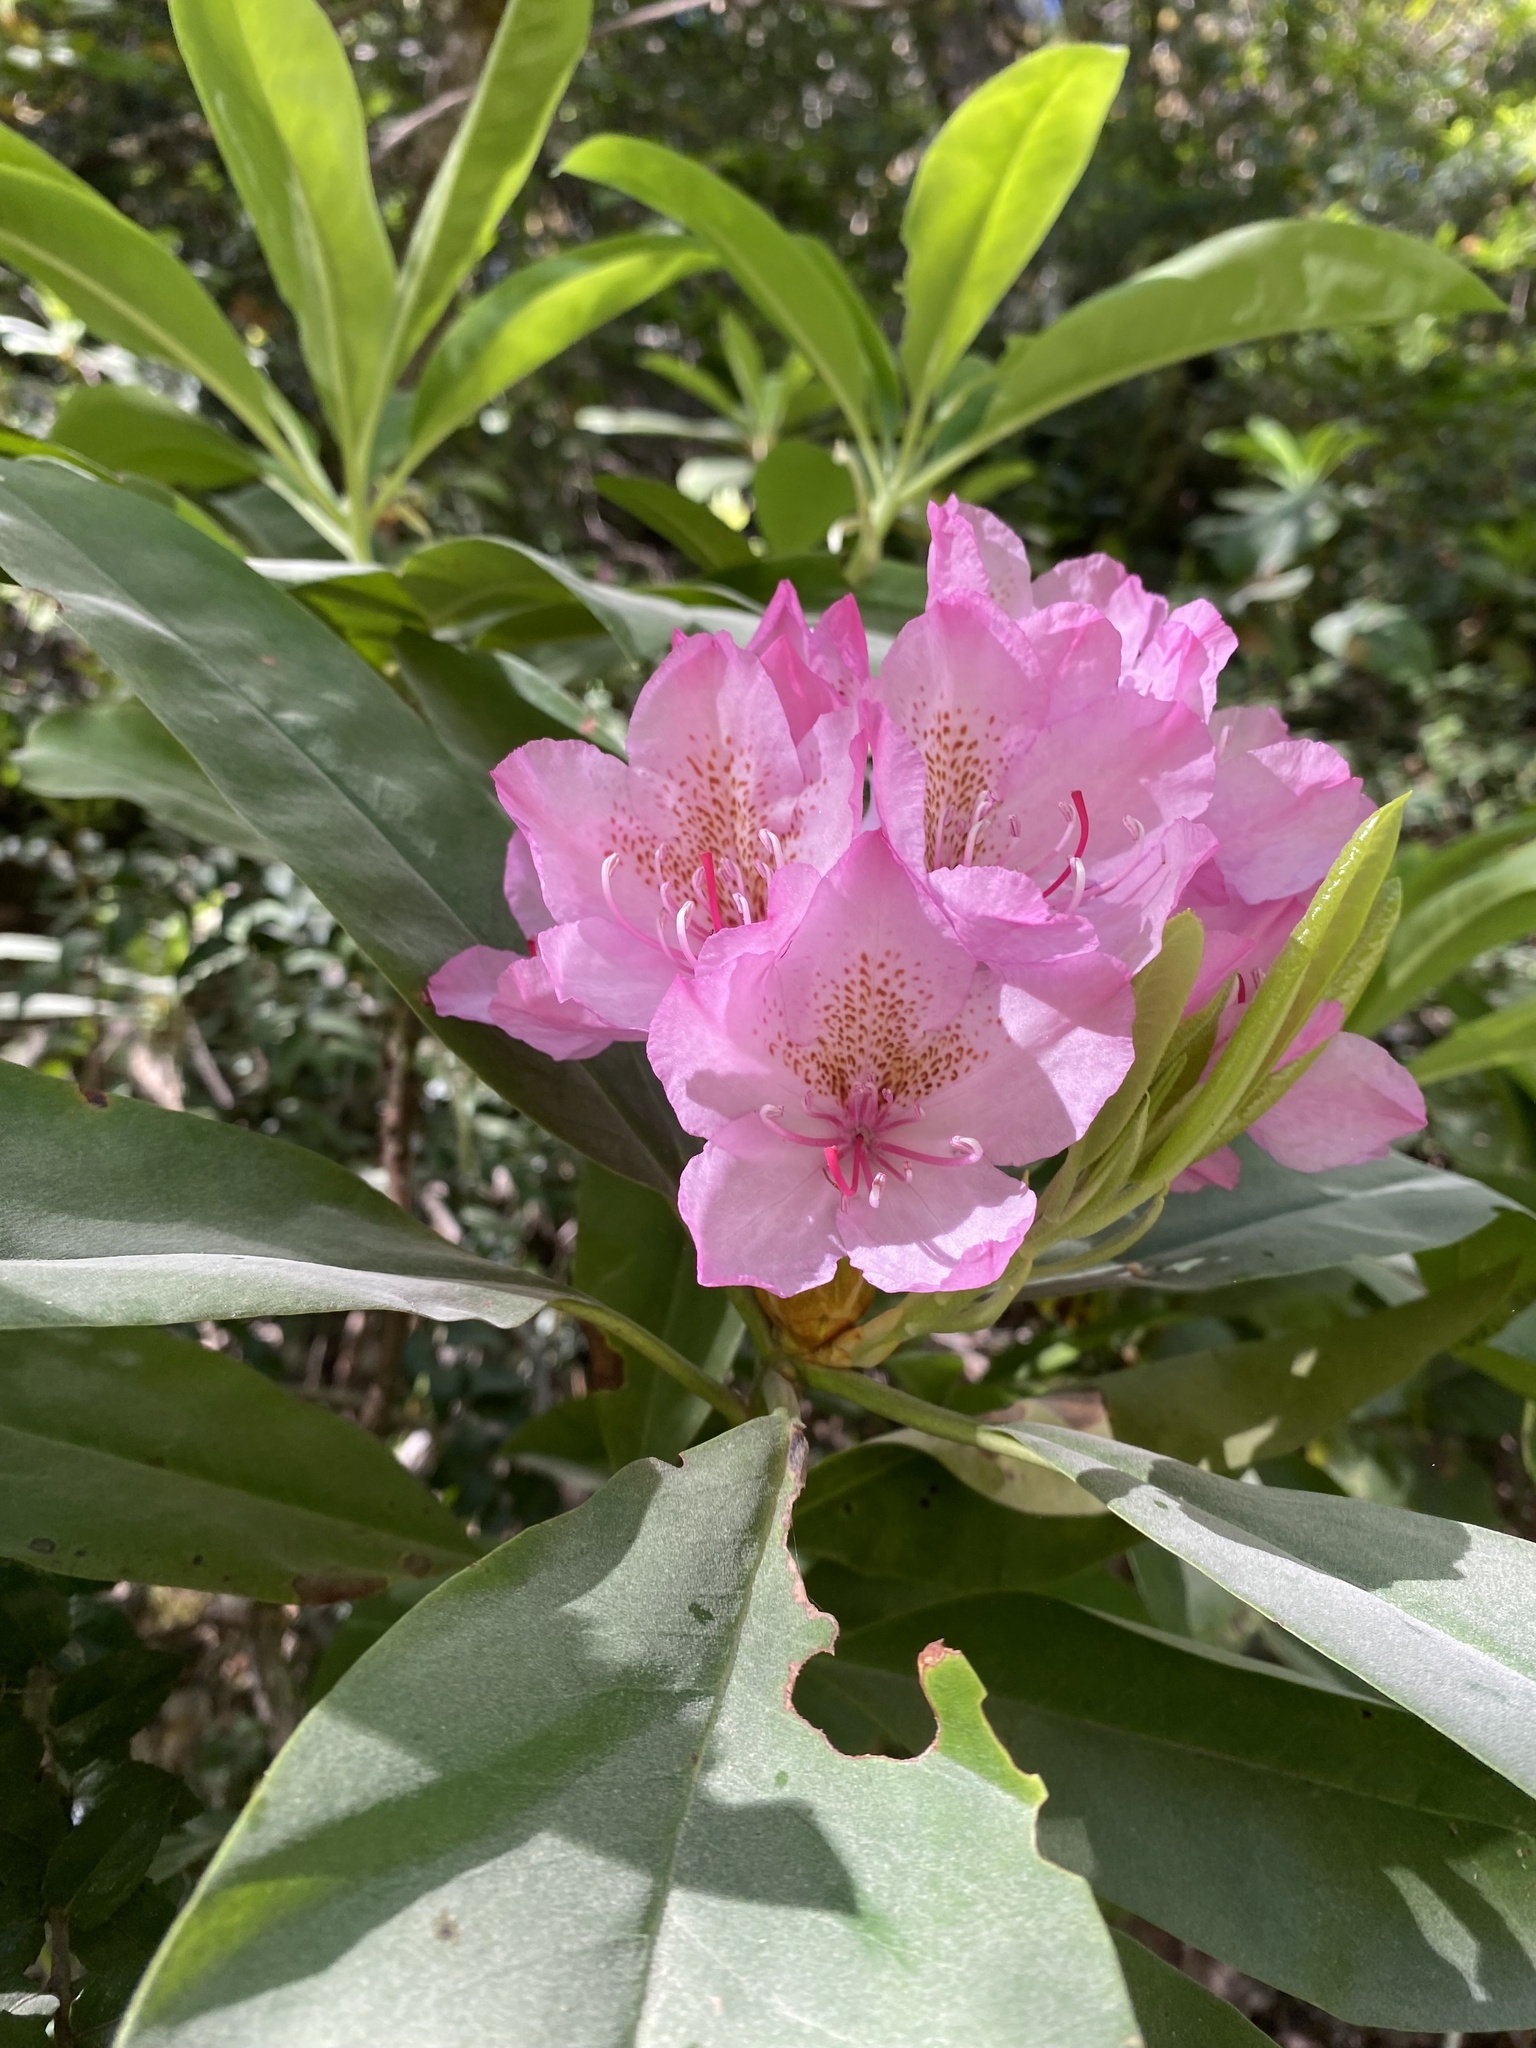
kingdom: Plantae
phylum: Tracheophyta
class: Magnoliopsida
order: Ericales
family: Ericaceae
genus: Rhododendron
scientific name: Rhododendron macrophyllum
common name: California rose bay
